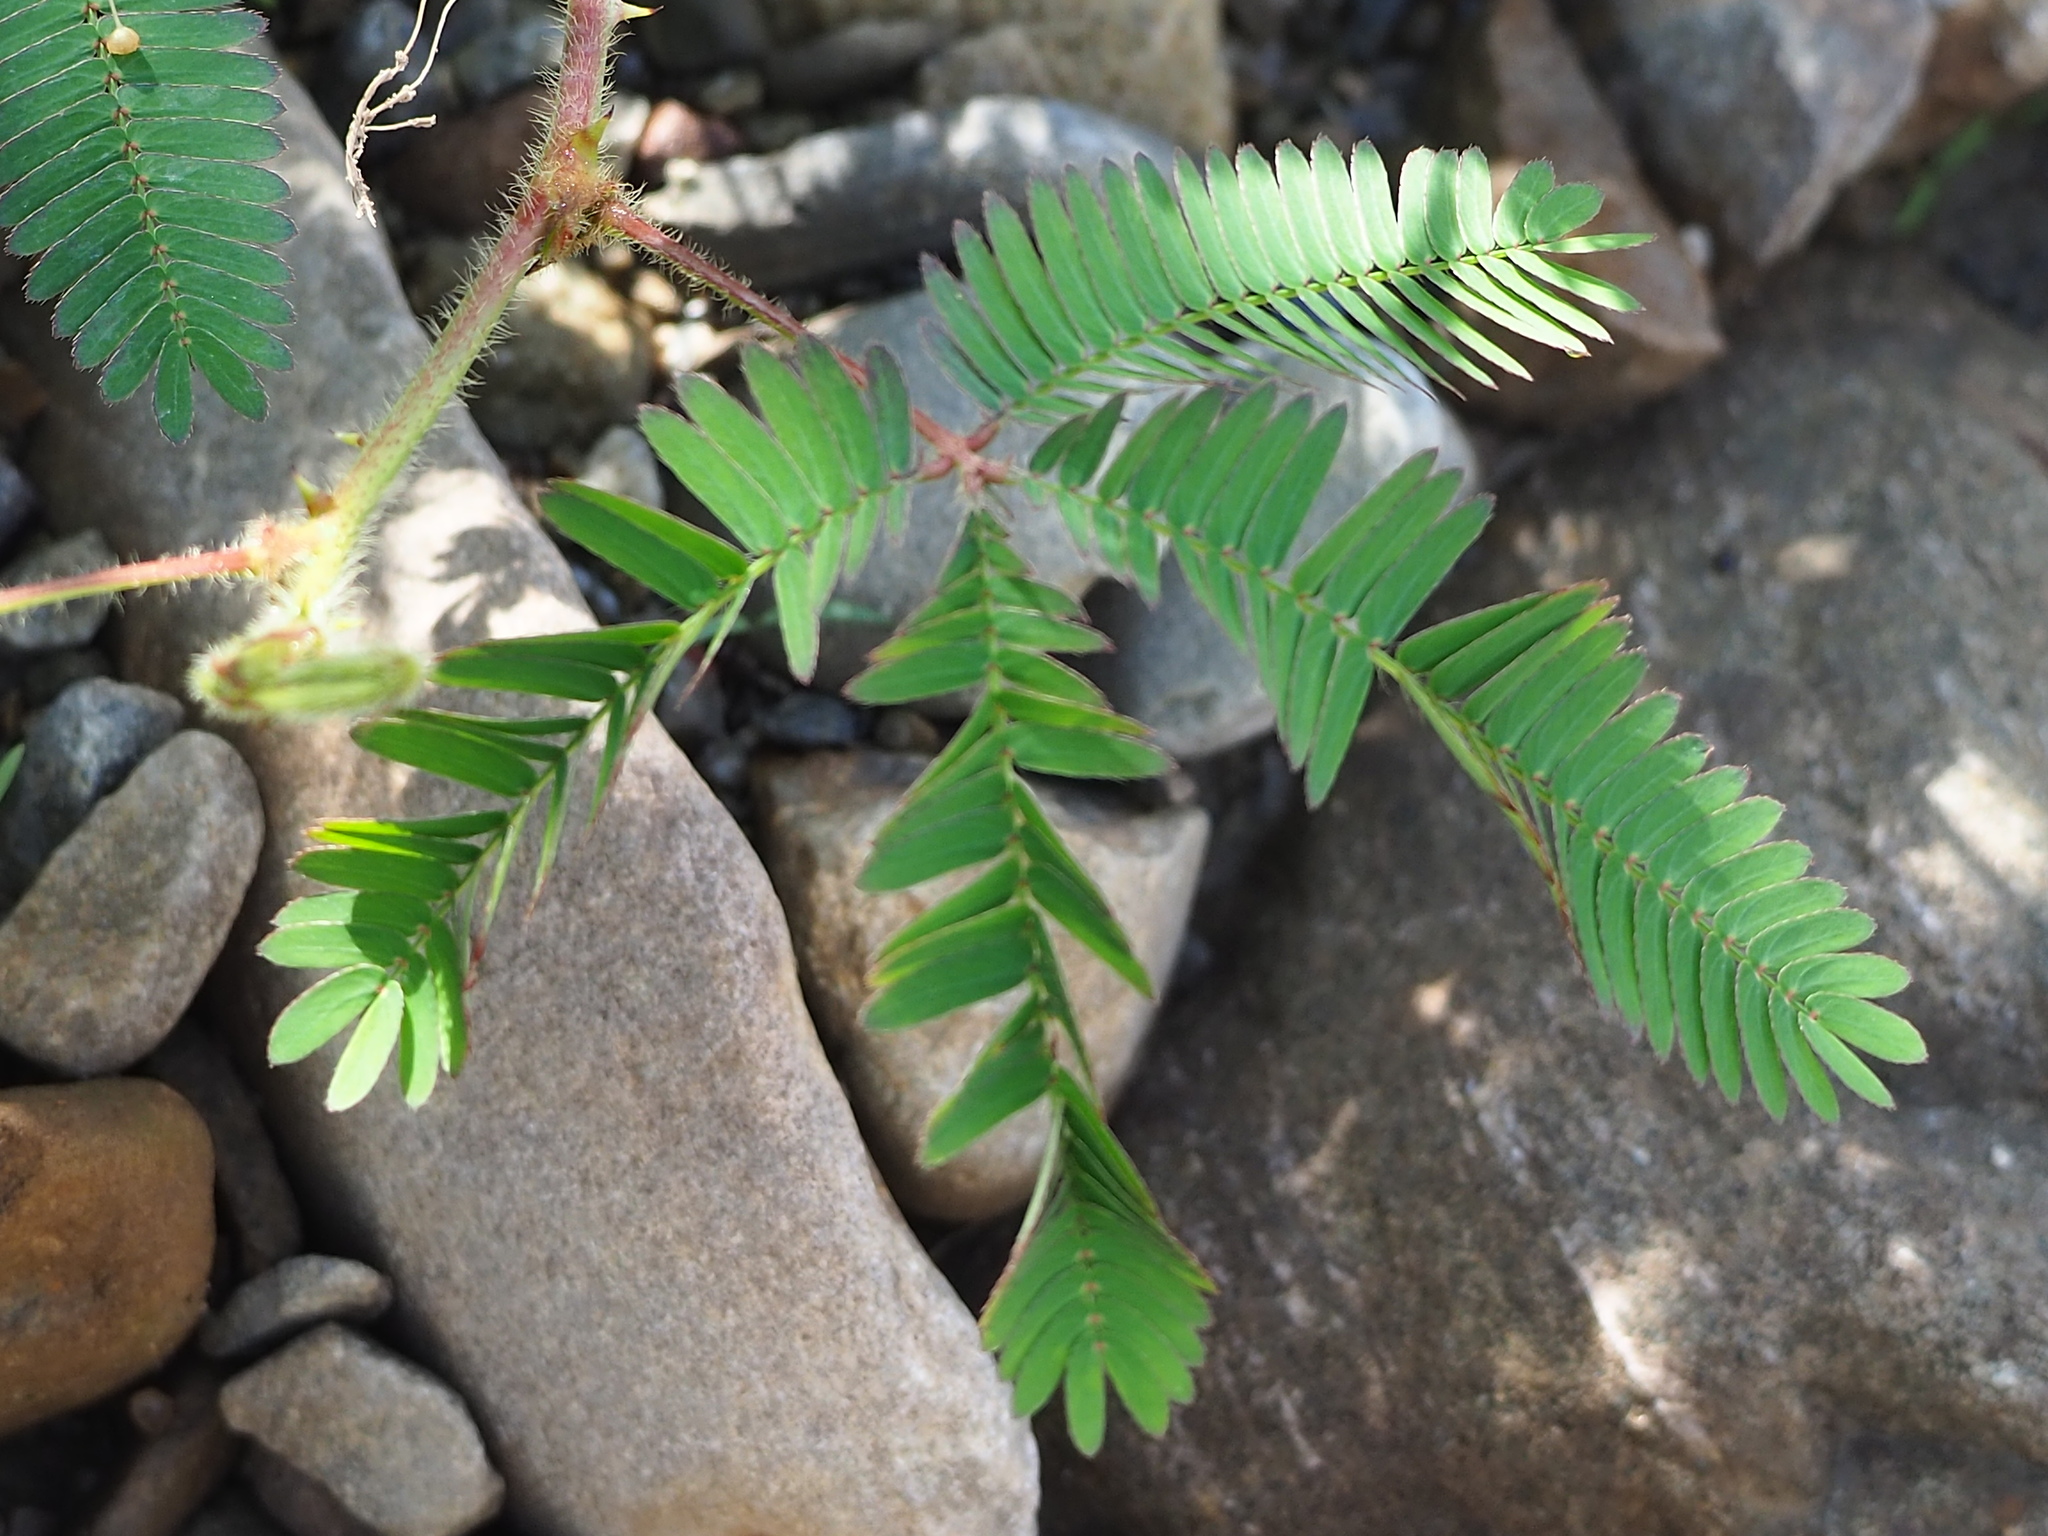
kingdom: Plantae
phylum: Tracheophyta
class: Magnoliopsida
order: Fabales
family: Fabaceae
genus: Mimosa
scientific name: Mimosa pudica
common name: Sensitive plant
